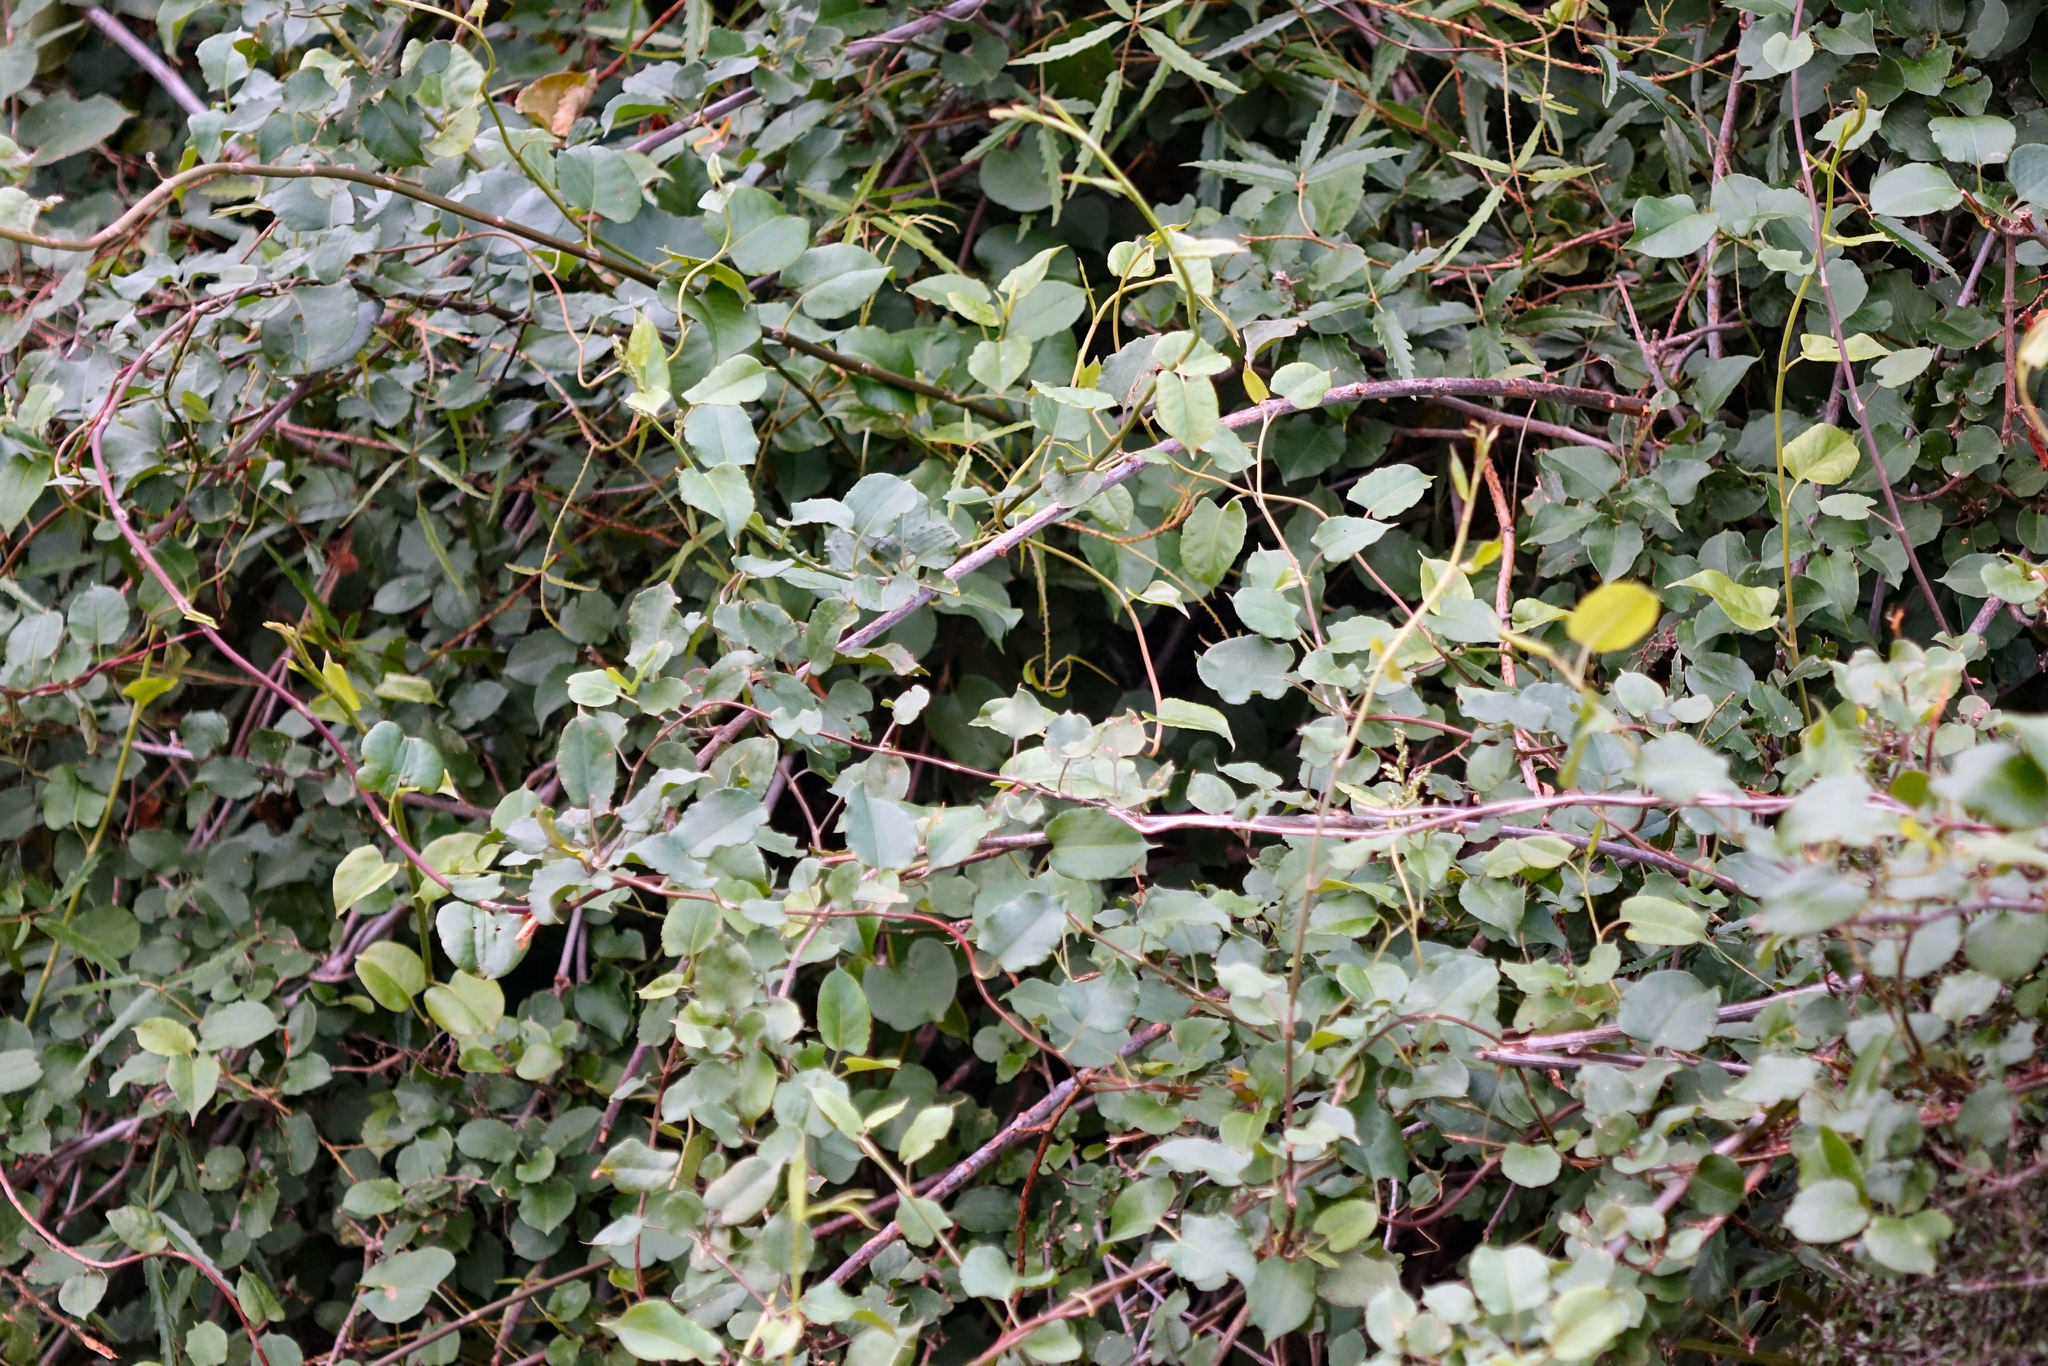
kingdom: Plantae
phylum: Tracheophyta
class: Magnoliopsida
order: Caryophyllales
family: Polygonaceae
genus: Muehlenbeckia
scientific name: Muehlenbeckia australis
